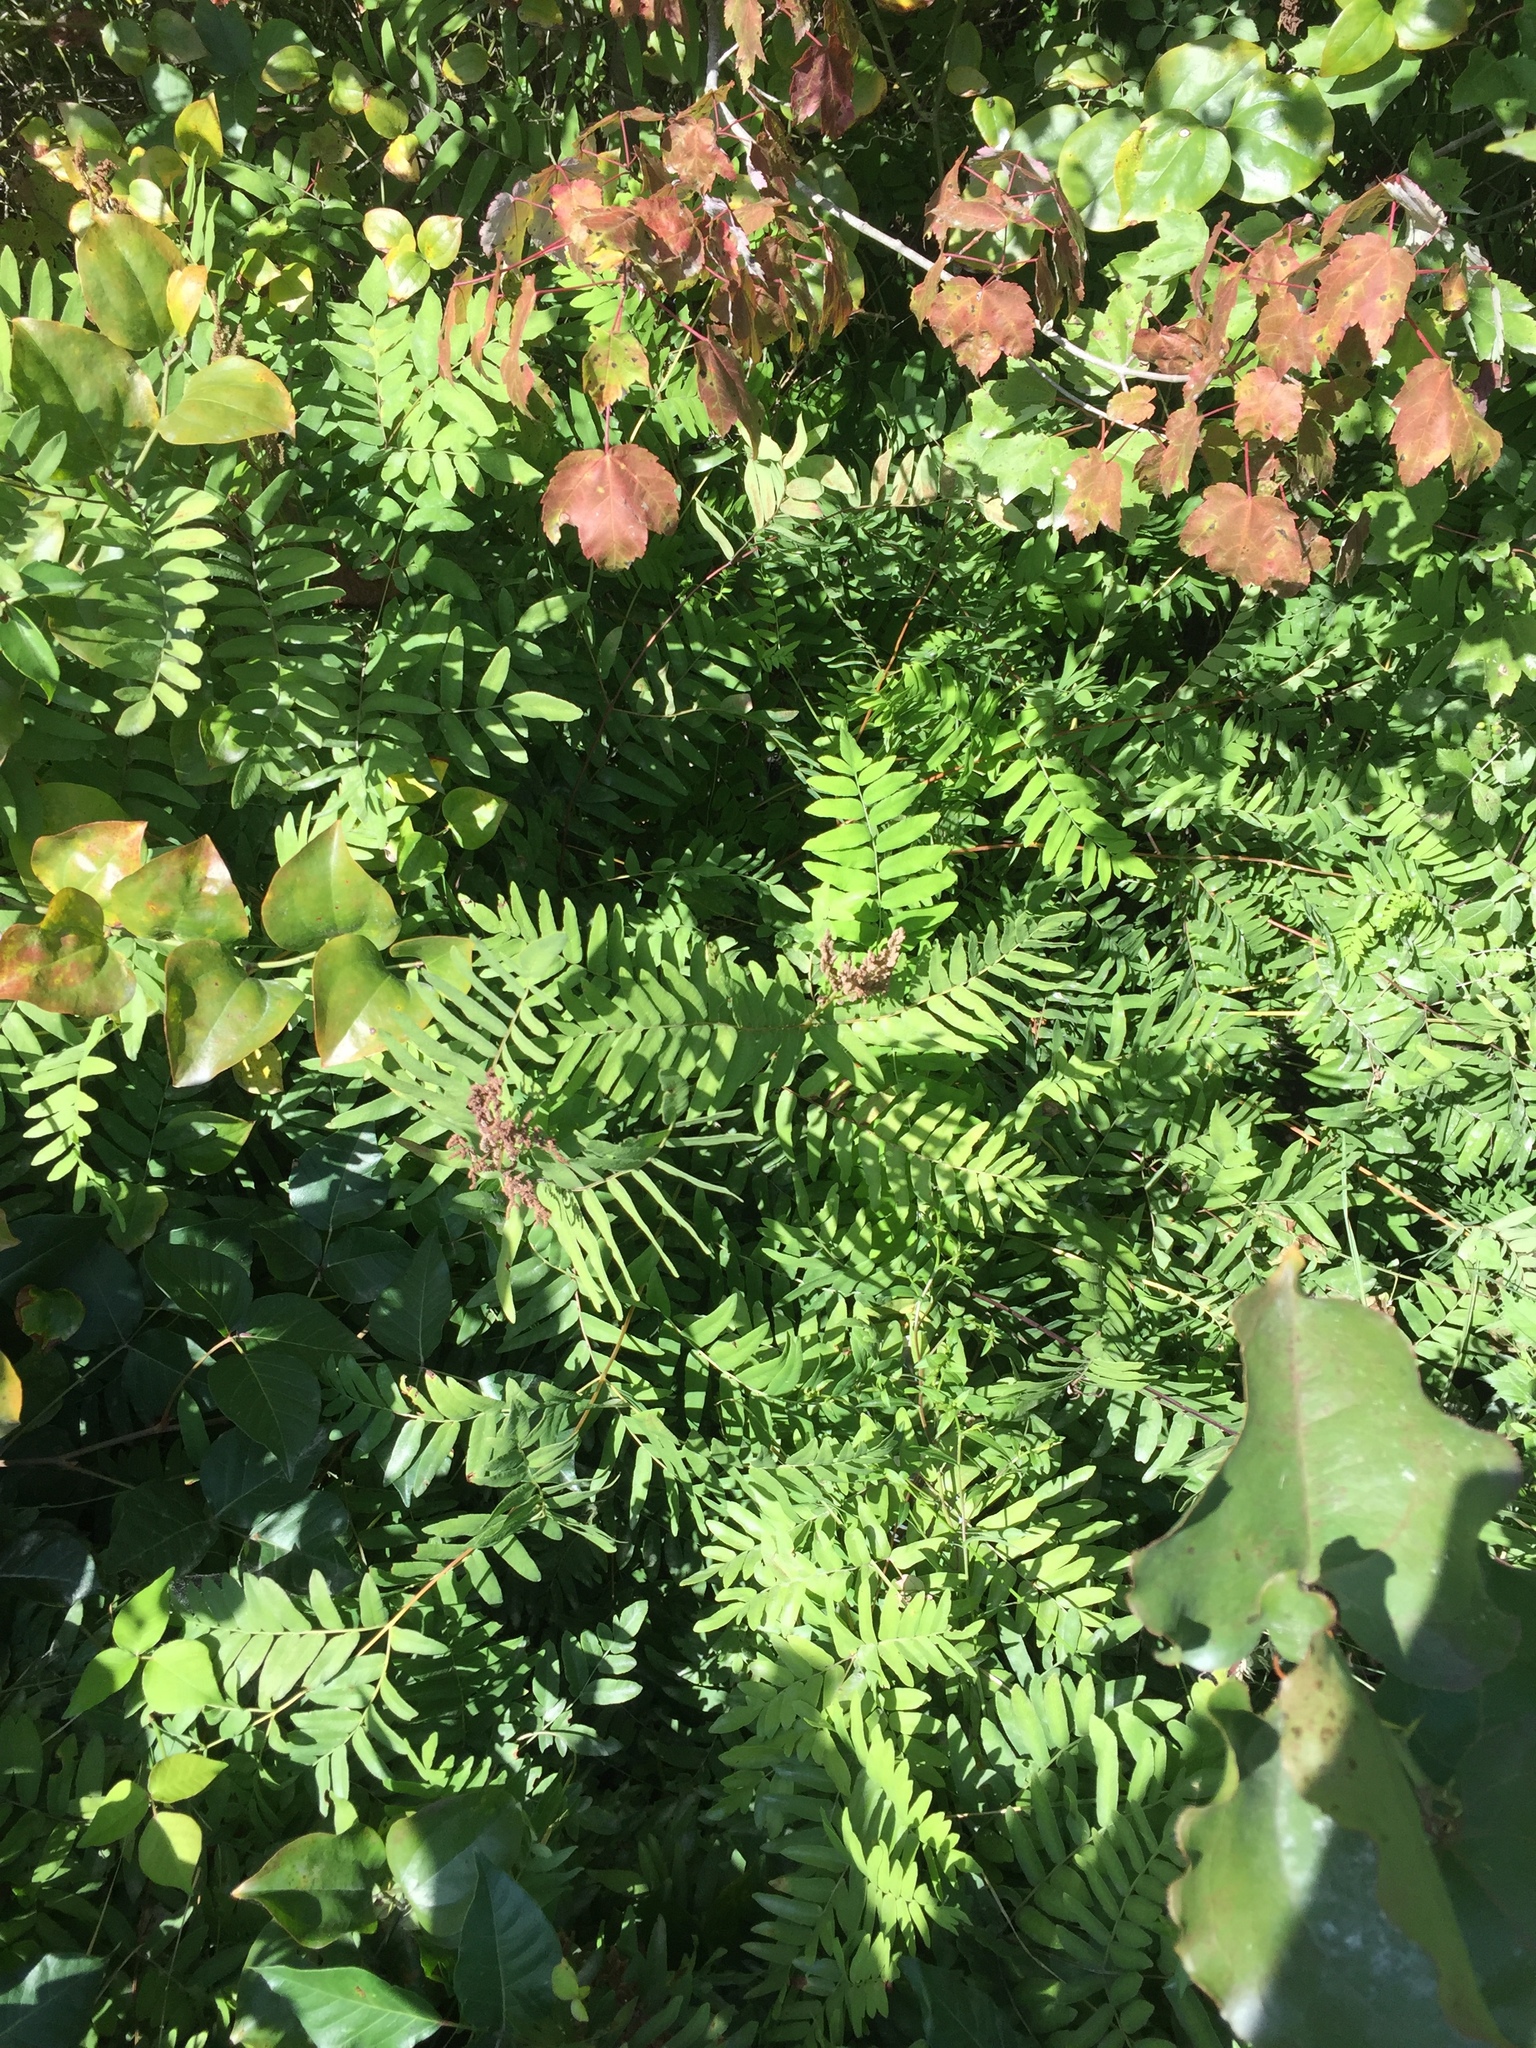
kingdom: Plantae
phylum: Tracheophyta
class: Polypodiopsida
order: Osmundales
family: Osmundaceae
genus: Osmunda
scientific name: Osmunda spectabilis
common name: American royal fern
